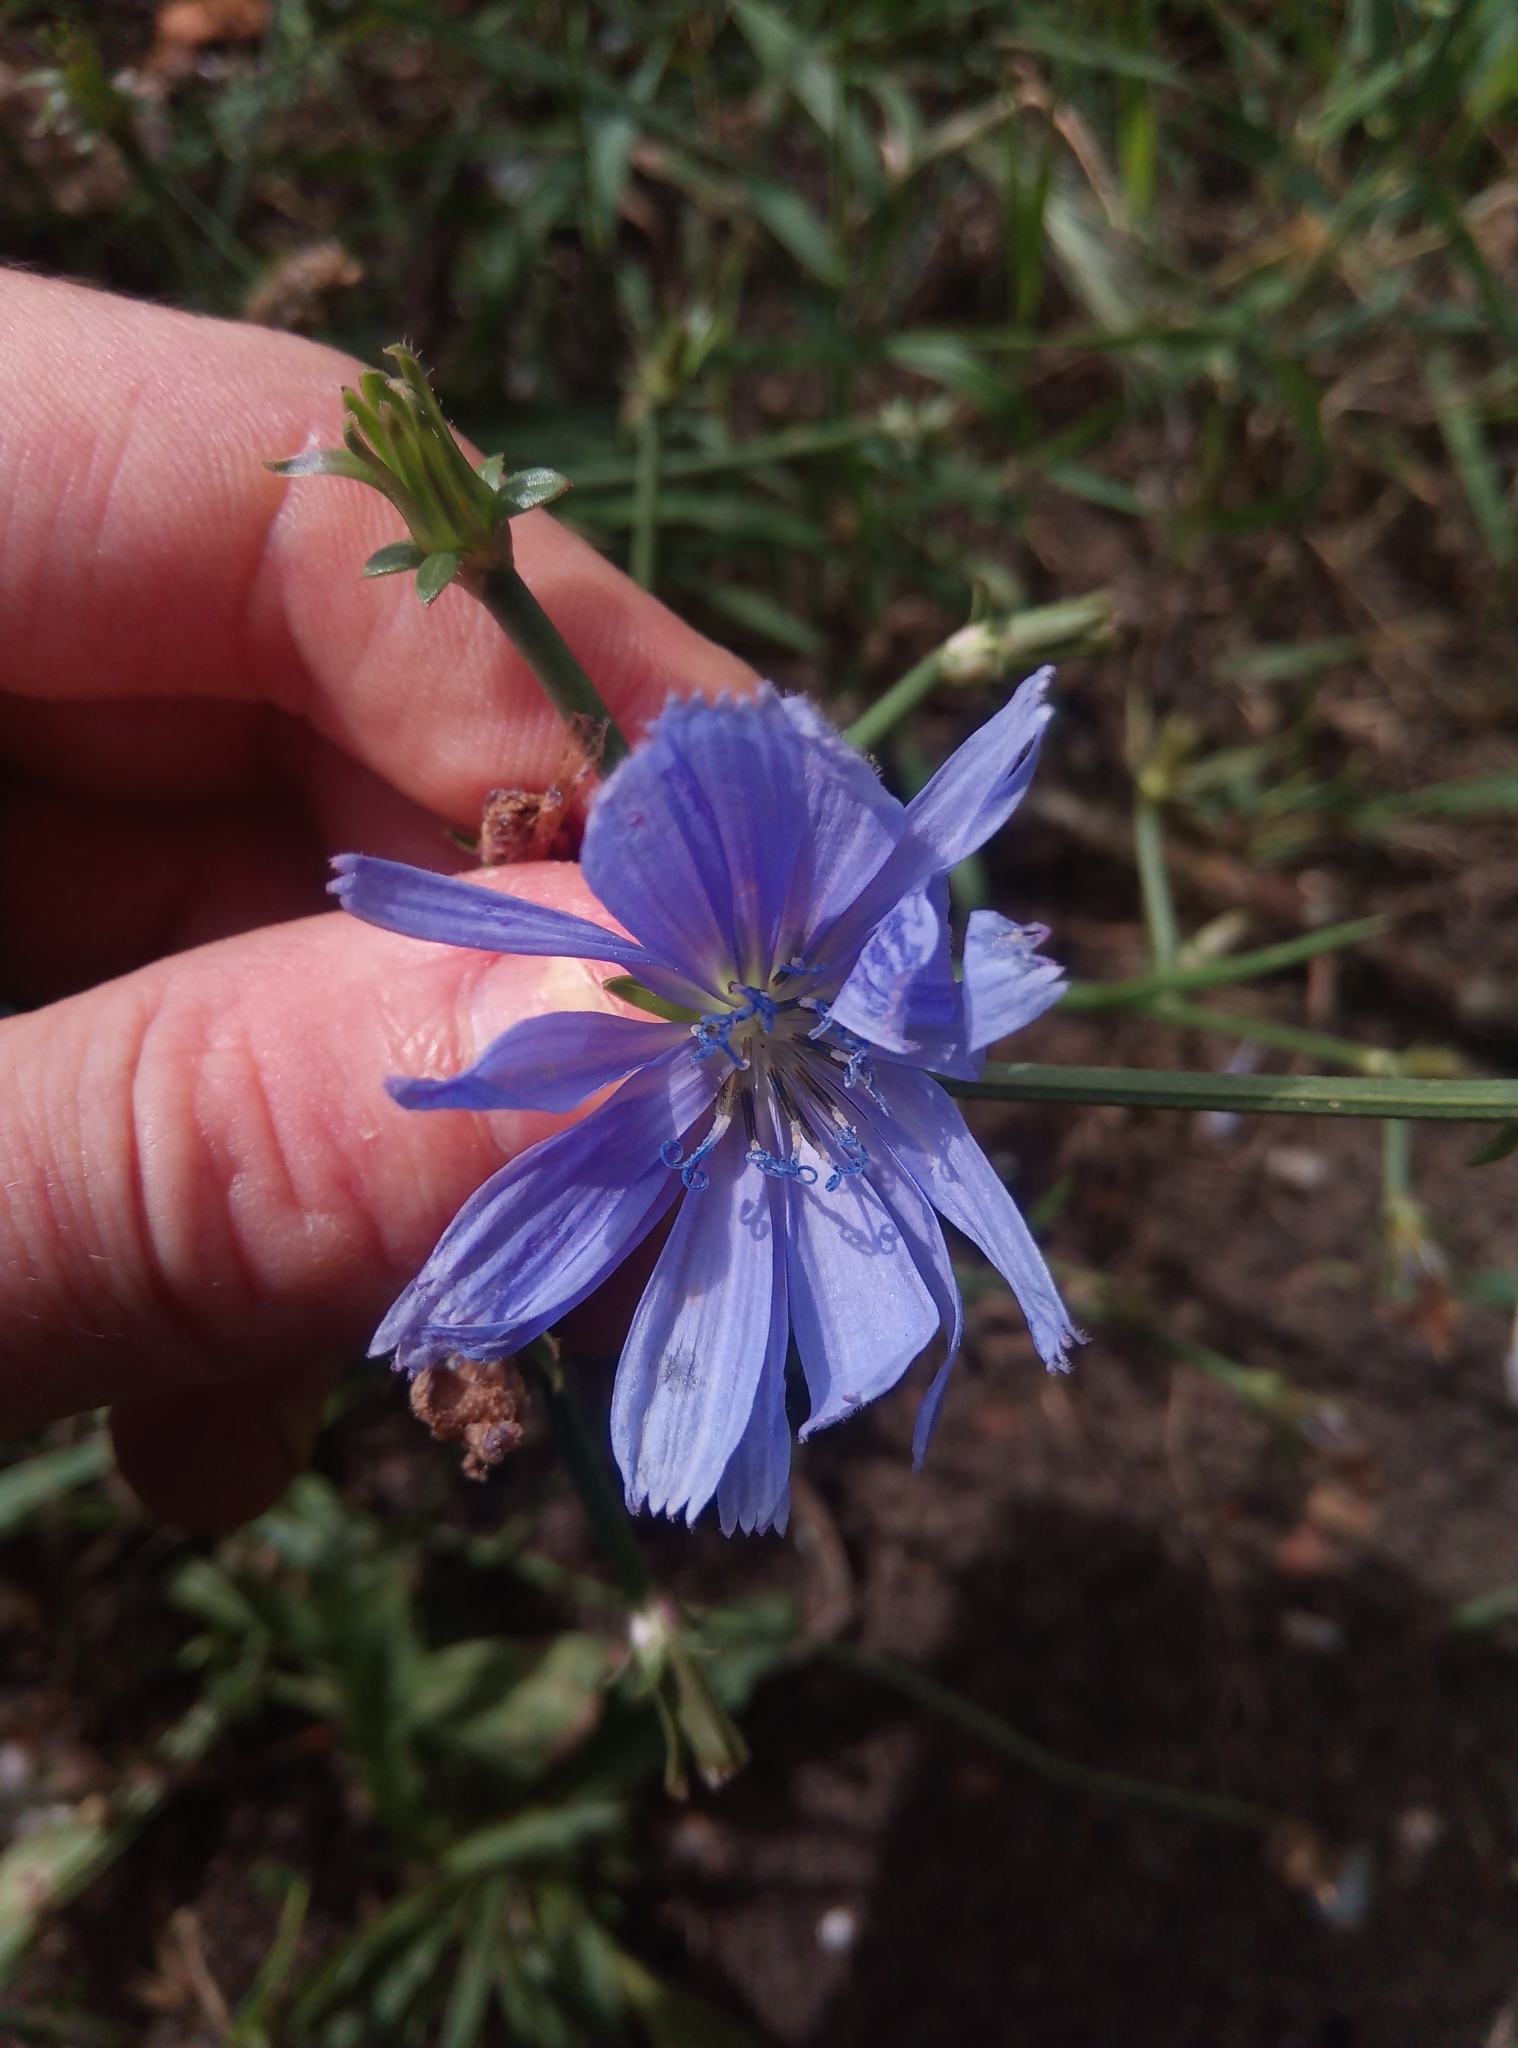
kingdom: Plantae
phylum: Tracheophyta
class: Magnoliopsida
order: Asterales
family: Asteraceae
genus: Cichorium
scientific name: Cichorium intybus
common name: Chicory
